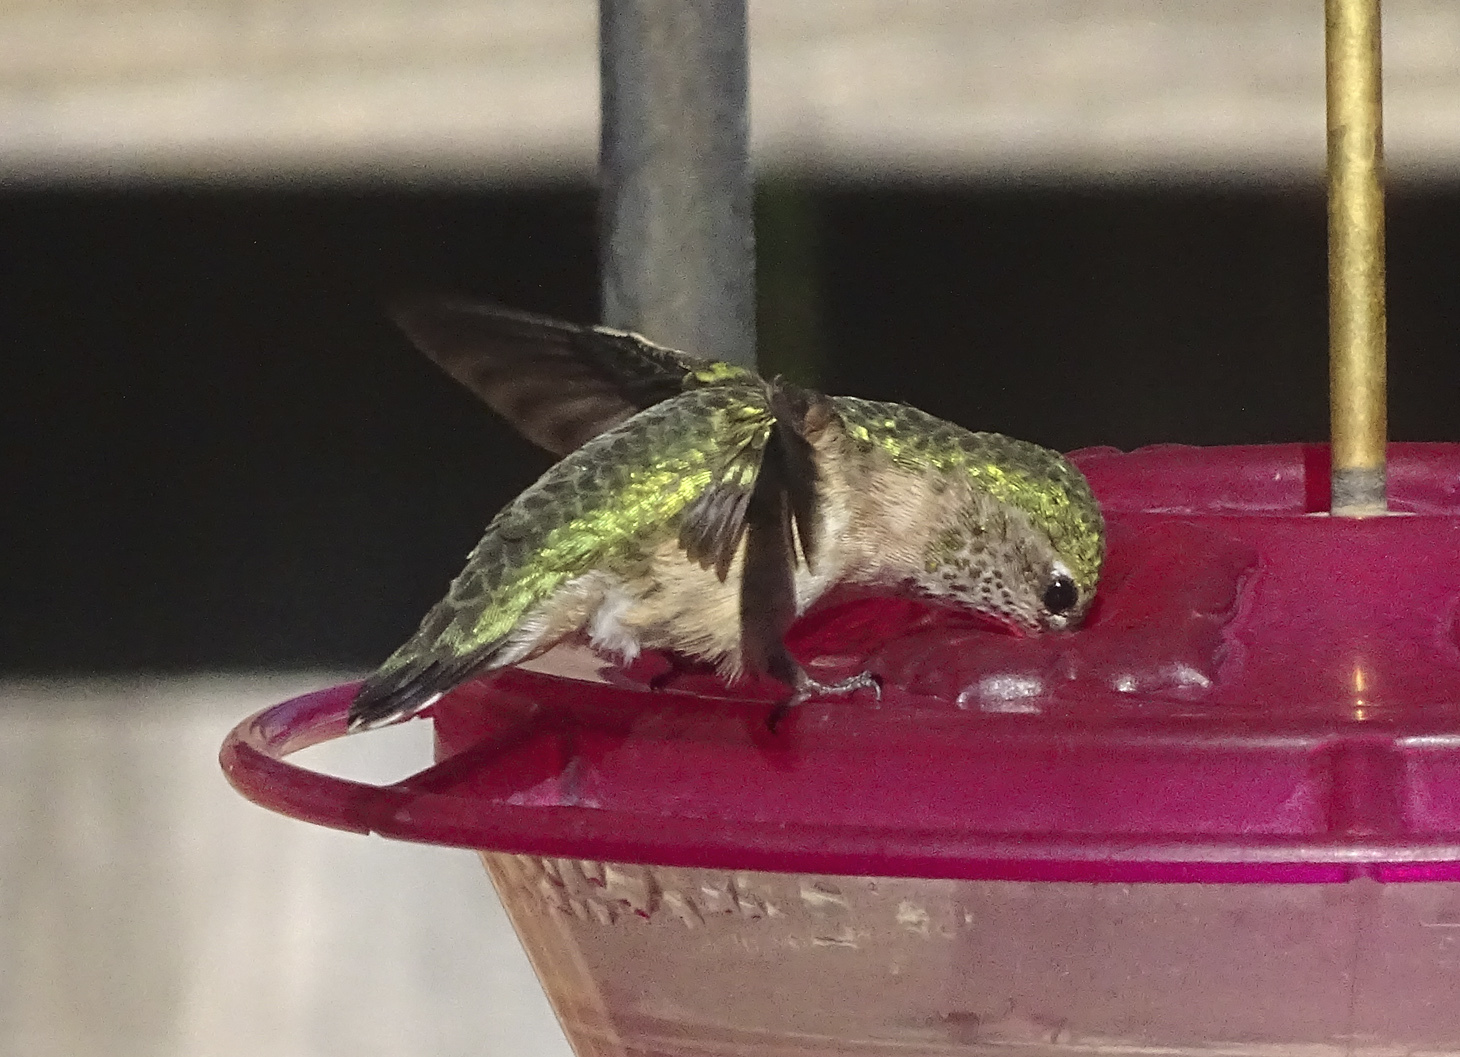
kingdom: Animalia
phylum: Chordata
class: Aves
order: Apodiformes
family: Trochilidae
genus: Selasphorus
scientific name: Selasphorus calliope
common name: Calliope hummingbird
